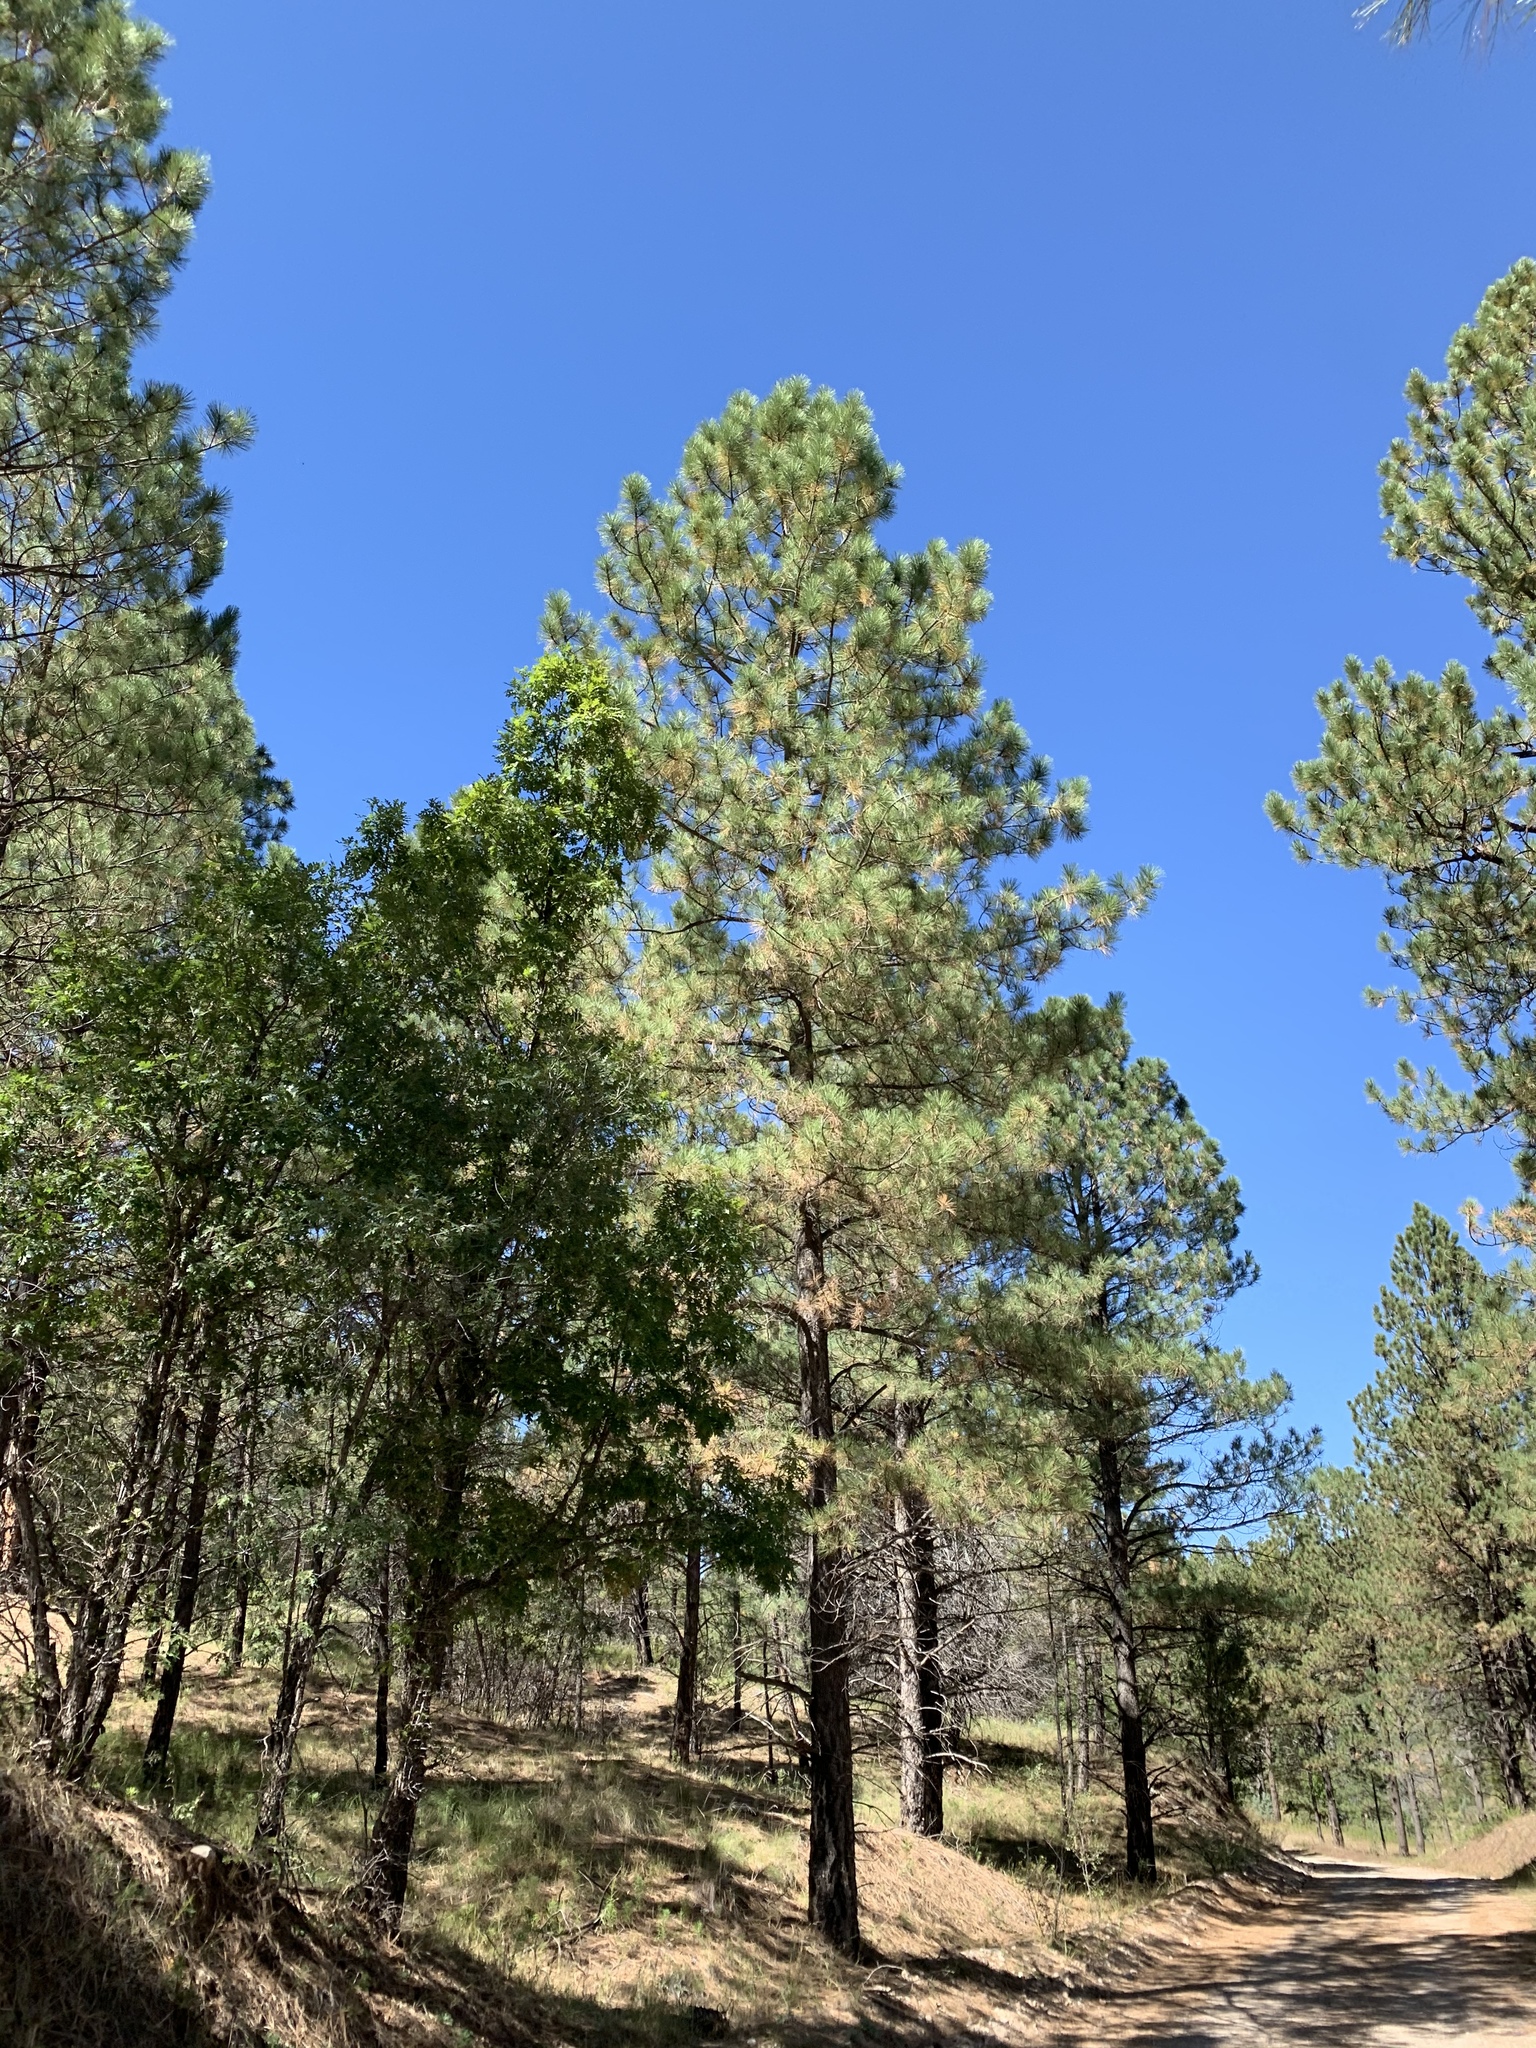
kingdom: Plantae
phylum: Tracheophyta
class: Pinopsida
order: Pinales
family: Pinaceae
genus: Pinus
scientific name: Pinus ponderosa
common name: Western yellow-pine
